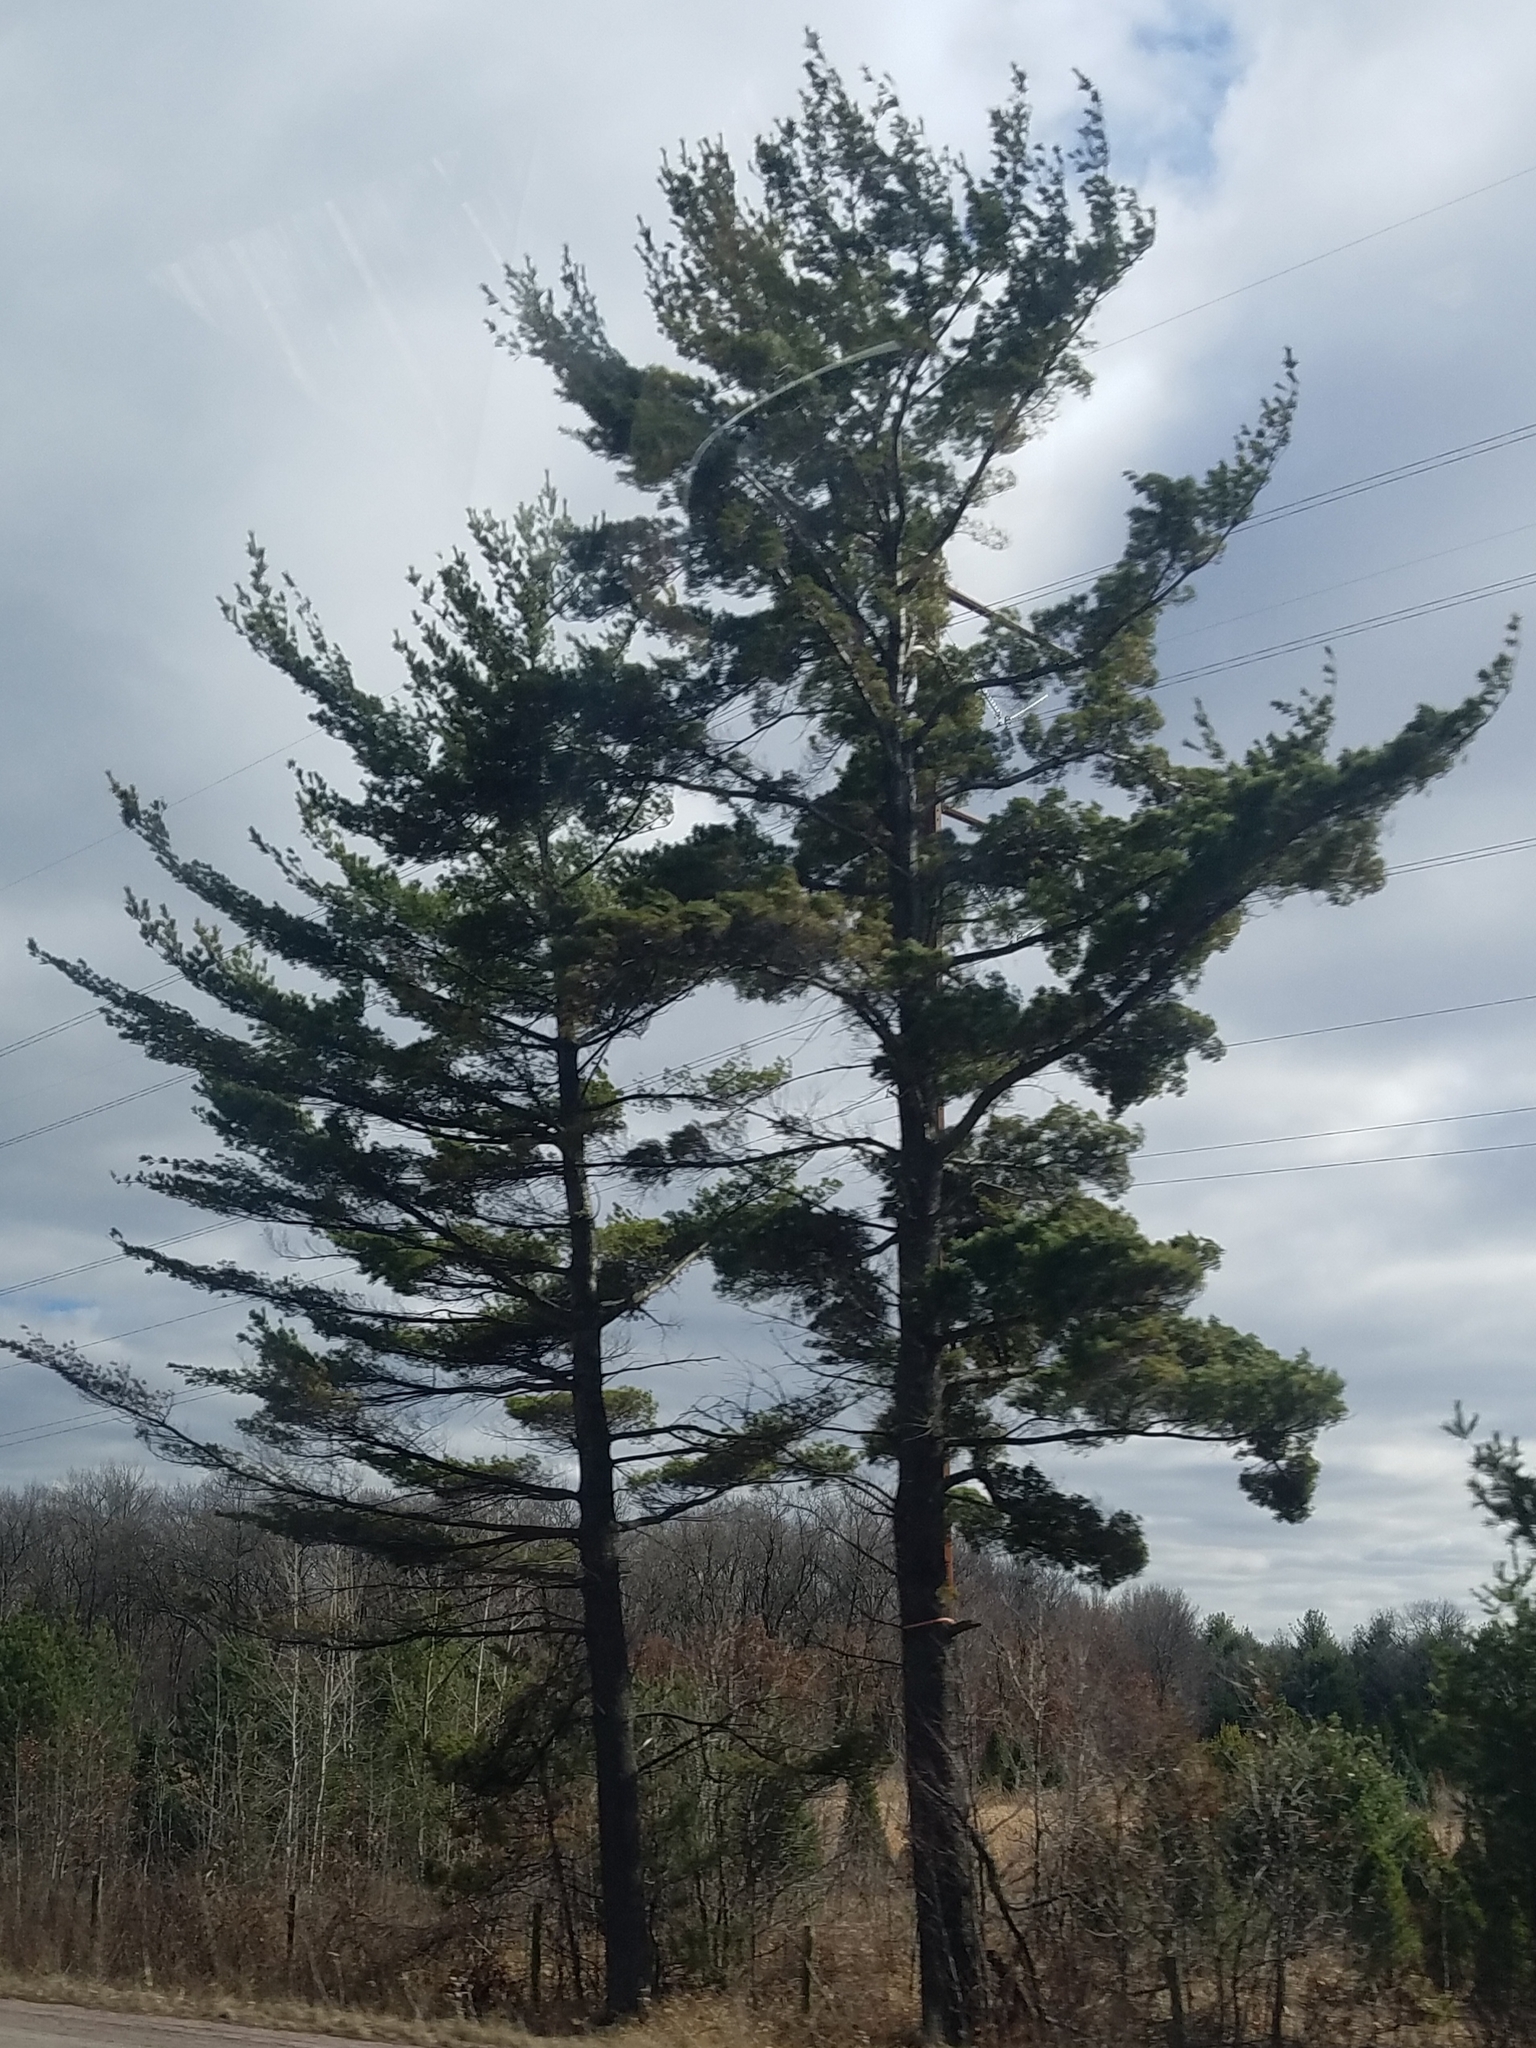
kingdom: Plantae
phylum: Tracheophyta
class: Pinopsida
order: Pinales
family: Pinaceae
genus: Pinus
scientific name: Pinus strobus
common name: Weymouth pine
